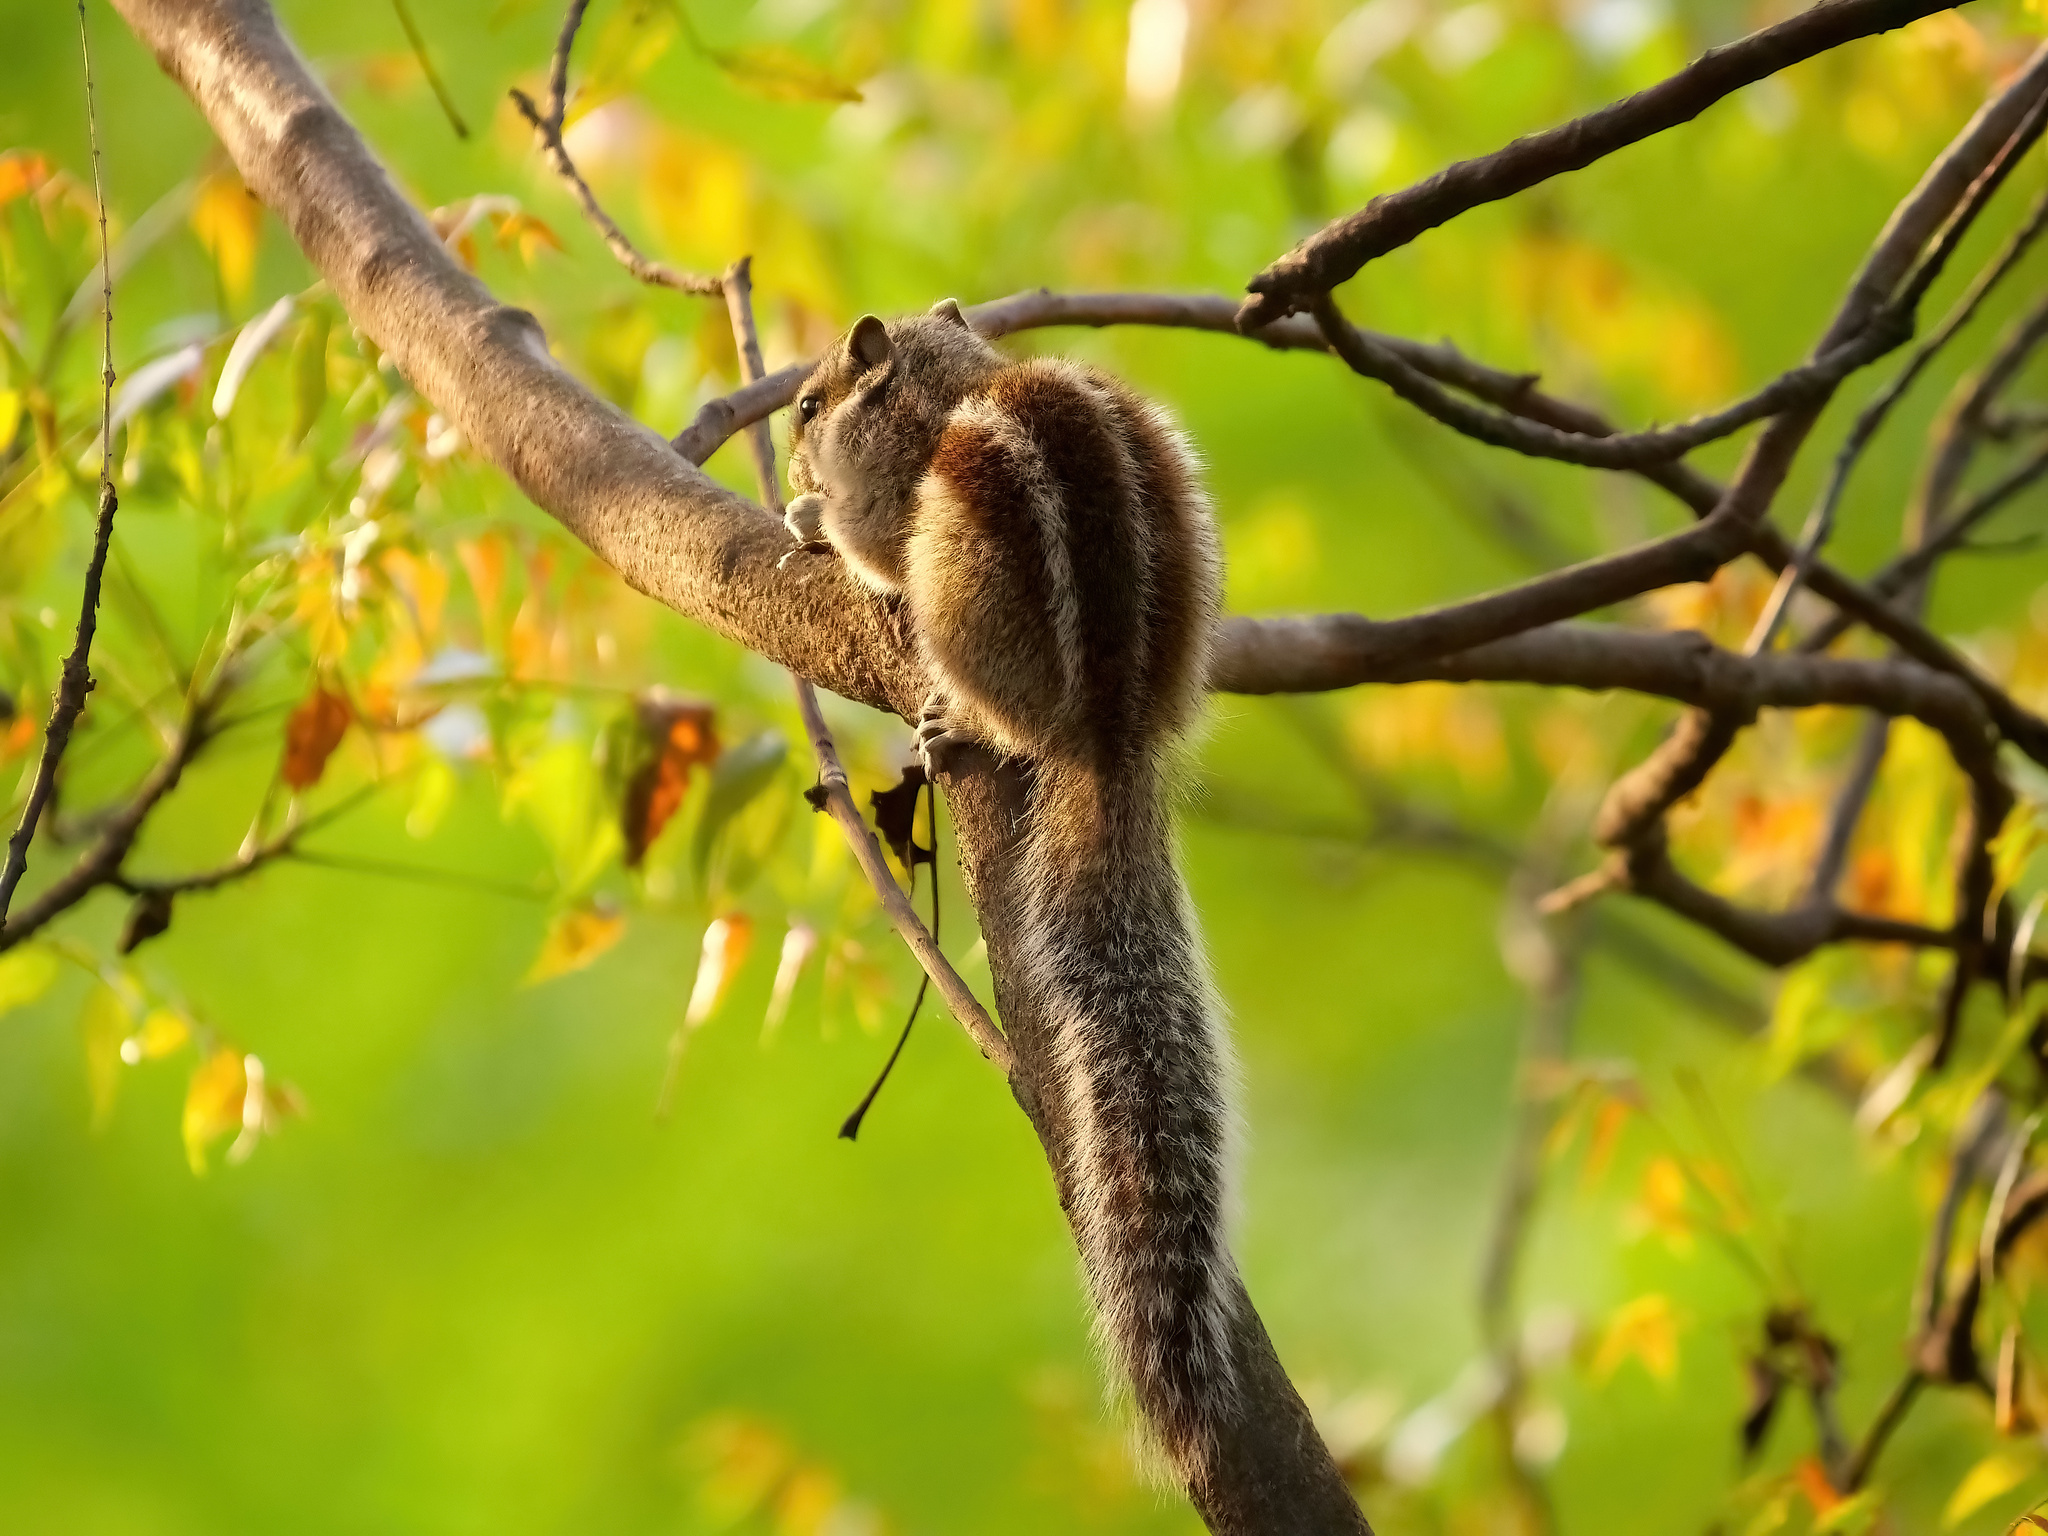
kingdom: Animalia
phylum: Chordata
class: Mammalia
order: Rodentia
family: Sciuridae
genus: Funambulus
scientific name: Funambulus pennantii
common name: Northern palm squirrel
